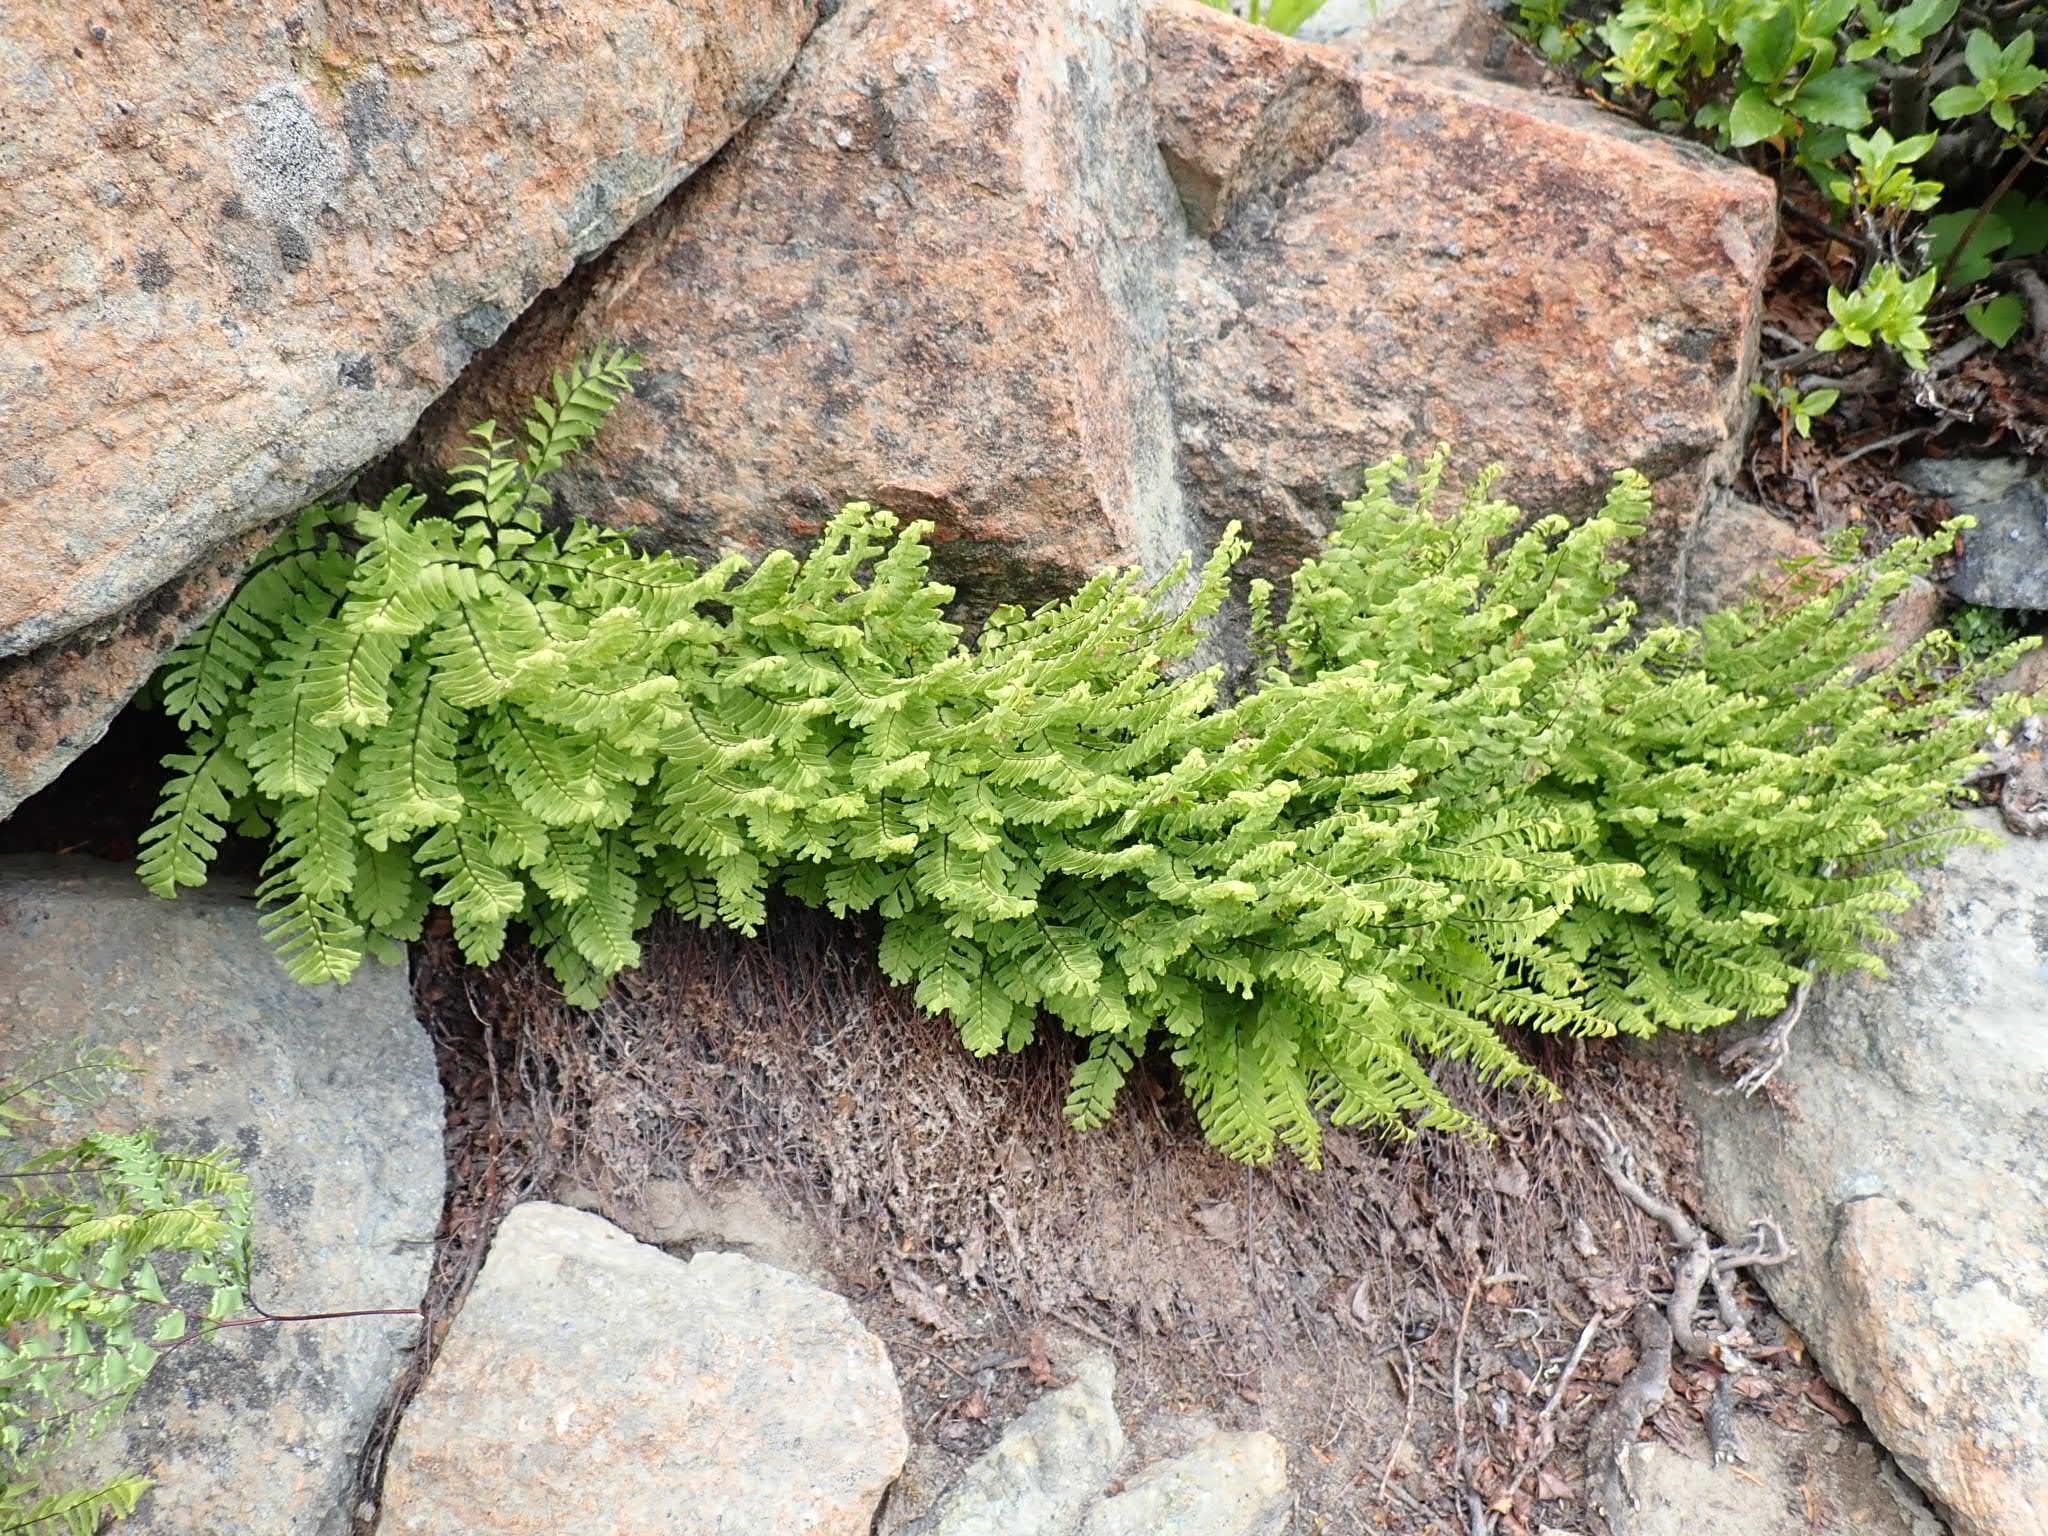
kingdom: Plantae
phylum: Tracheophyta
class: Polypodiopsida
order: Polypodiales
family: Pteridaceae
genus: Adiantum
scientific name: Adiantum aleuticum
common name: Aleutian maidenhair fern
